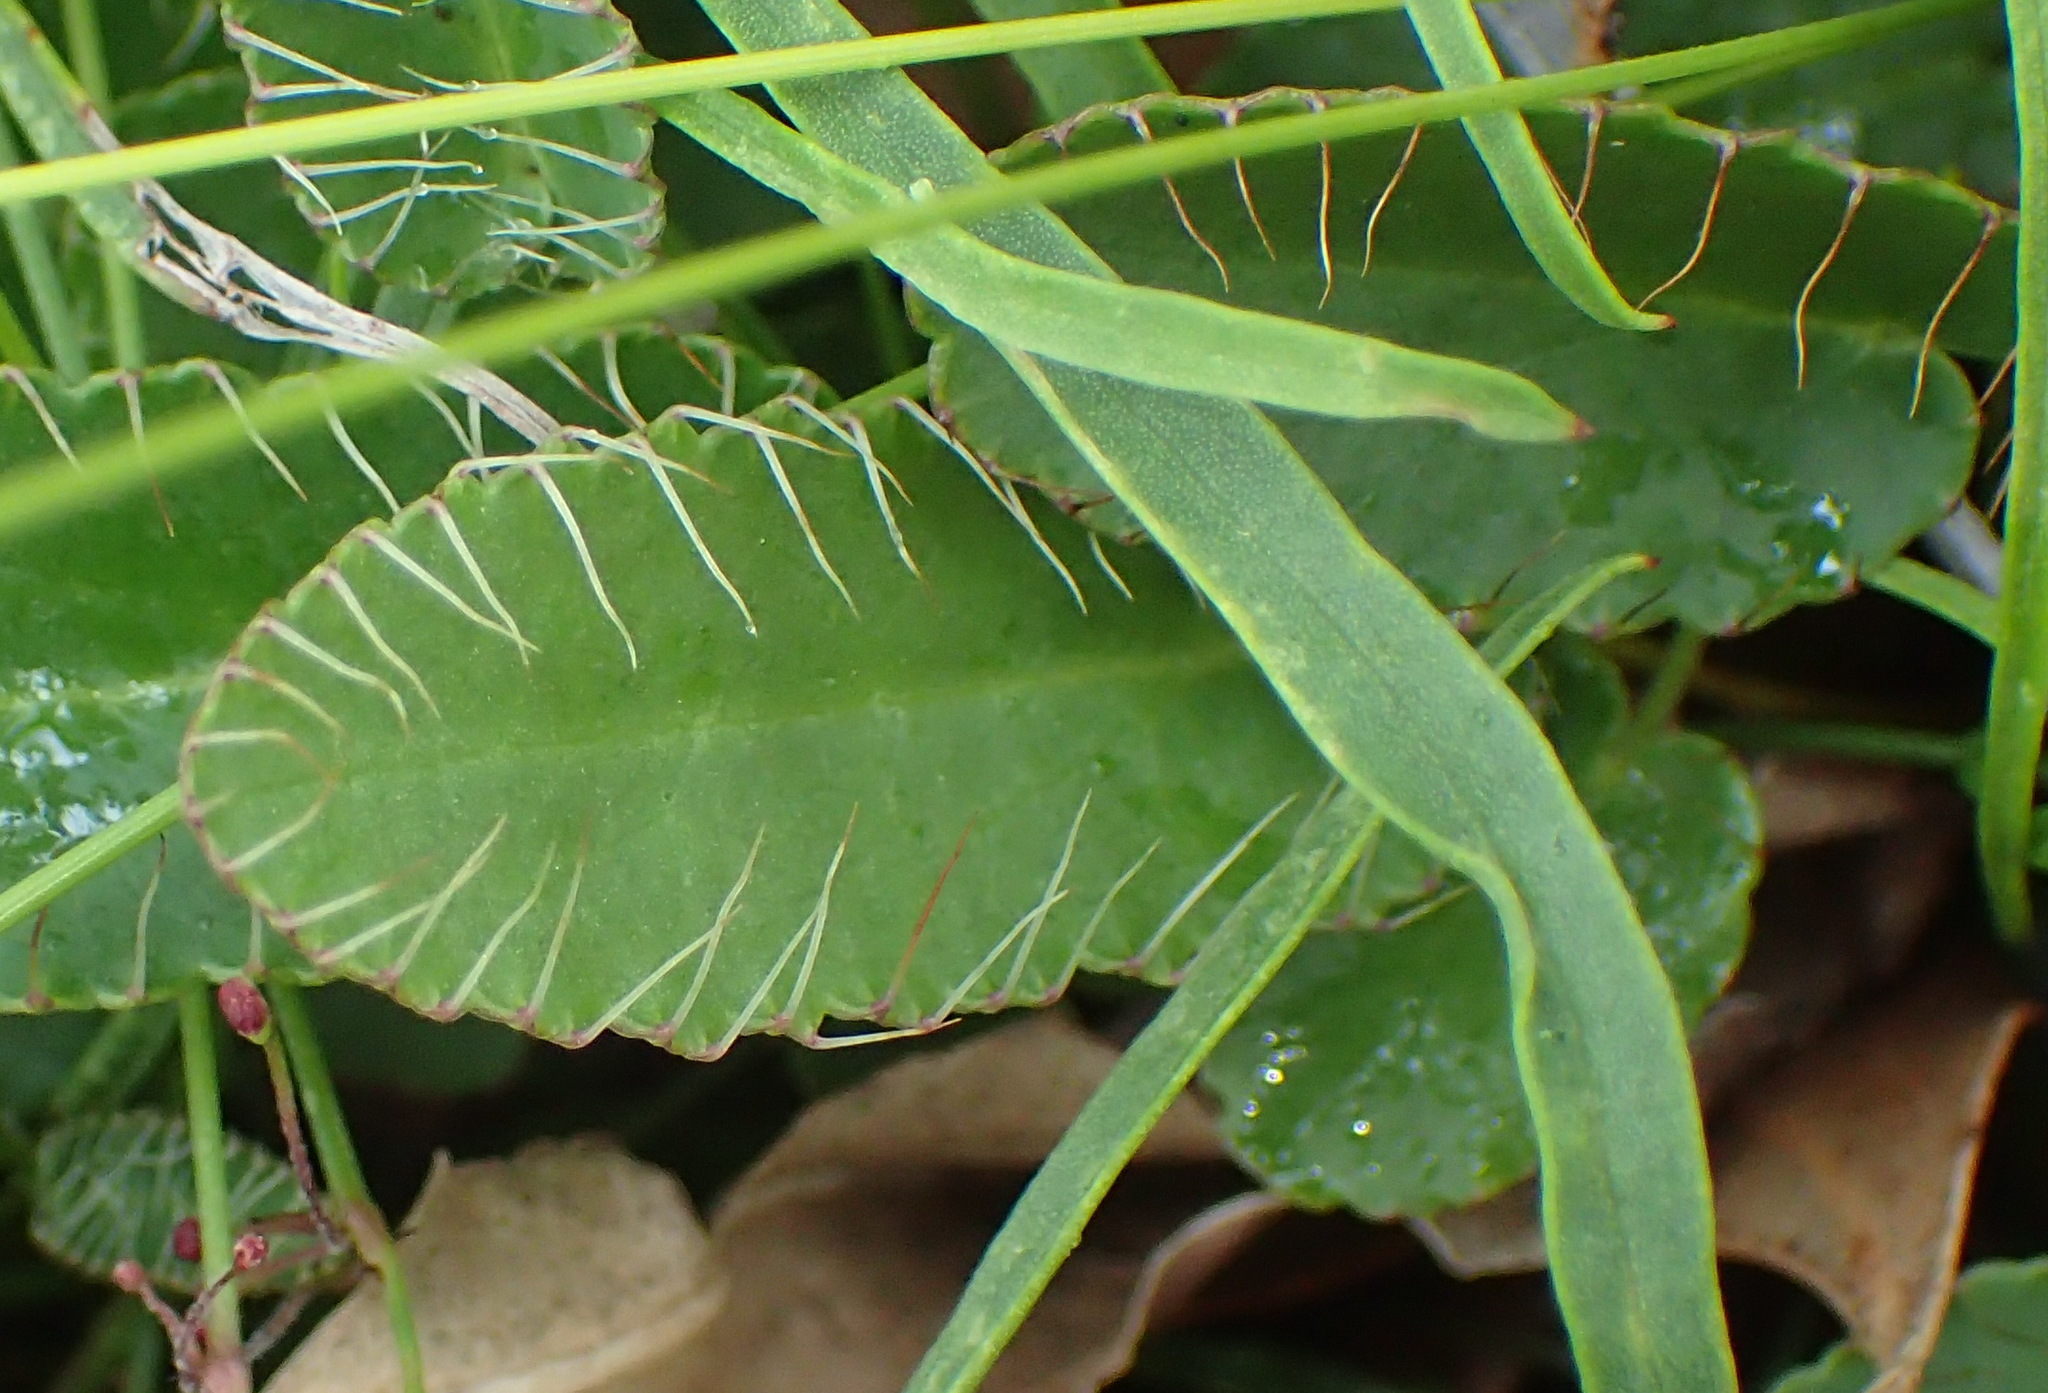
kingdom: Plantae
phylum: Tracheophyta
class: Magnoliopsida
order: Apiales
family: Apiaceae
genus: Alepidea
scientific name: Alepidea capensis
